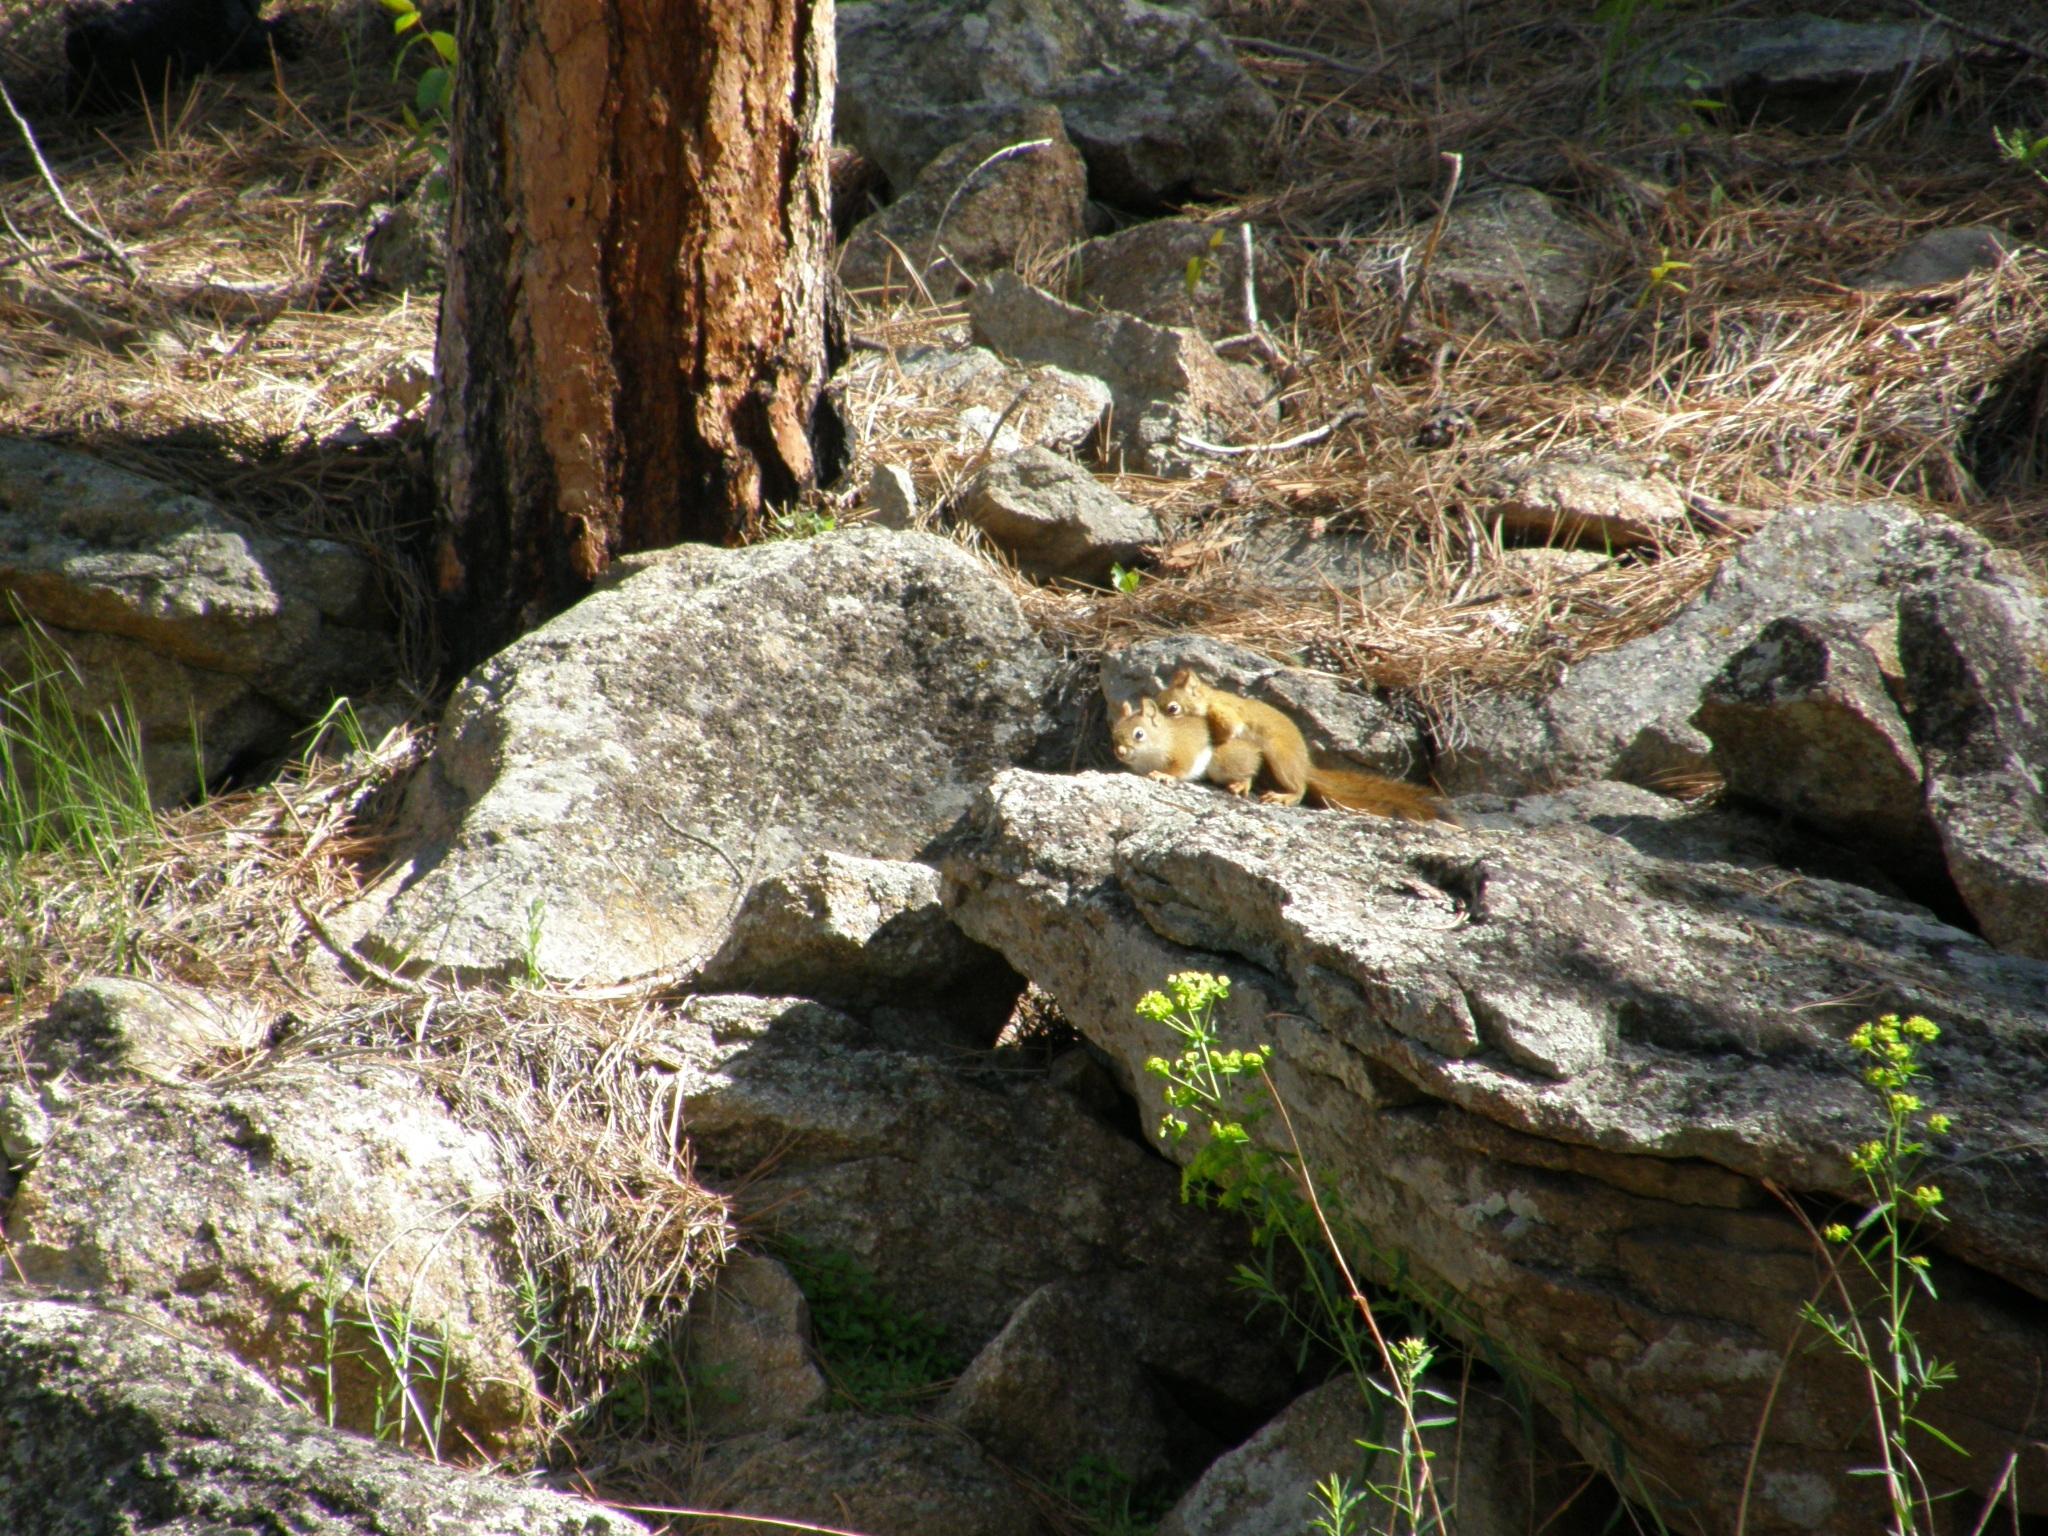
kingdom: Animalia
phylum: Chordata
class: Mammalia
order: Rodentia
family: Sciuridae
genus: Tamiasciurus
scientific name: Tamiasciurus hudsonicus
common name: Red squirrel
